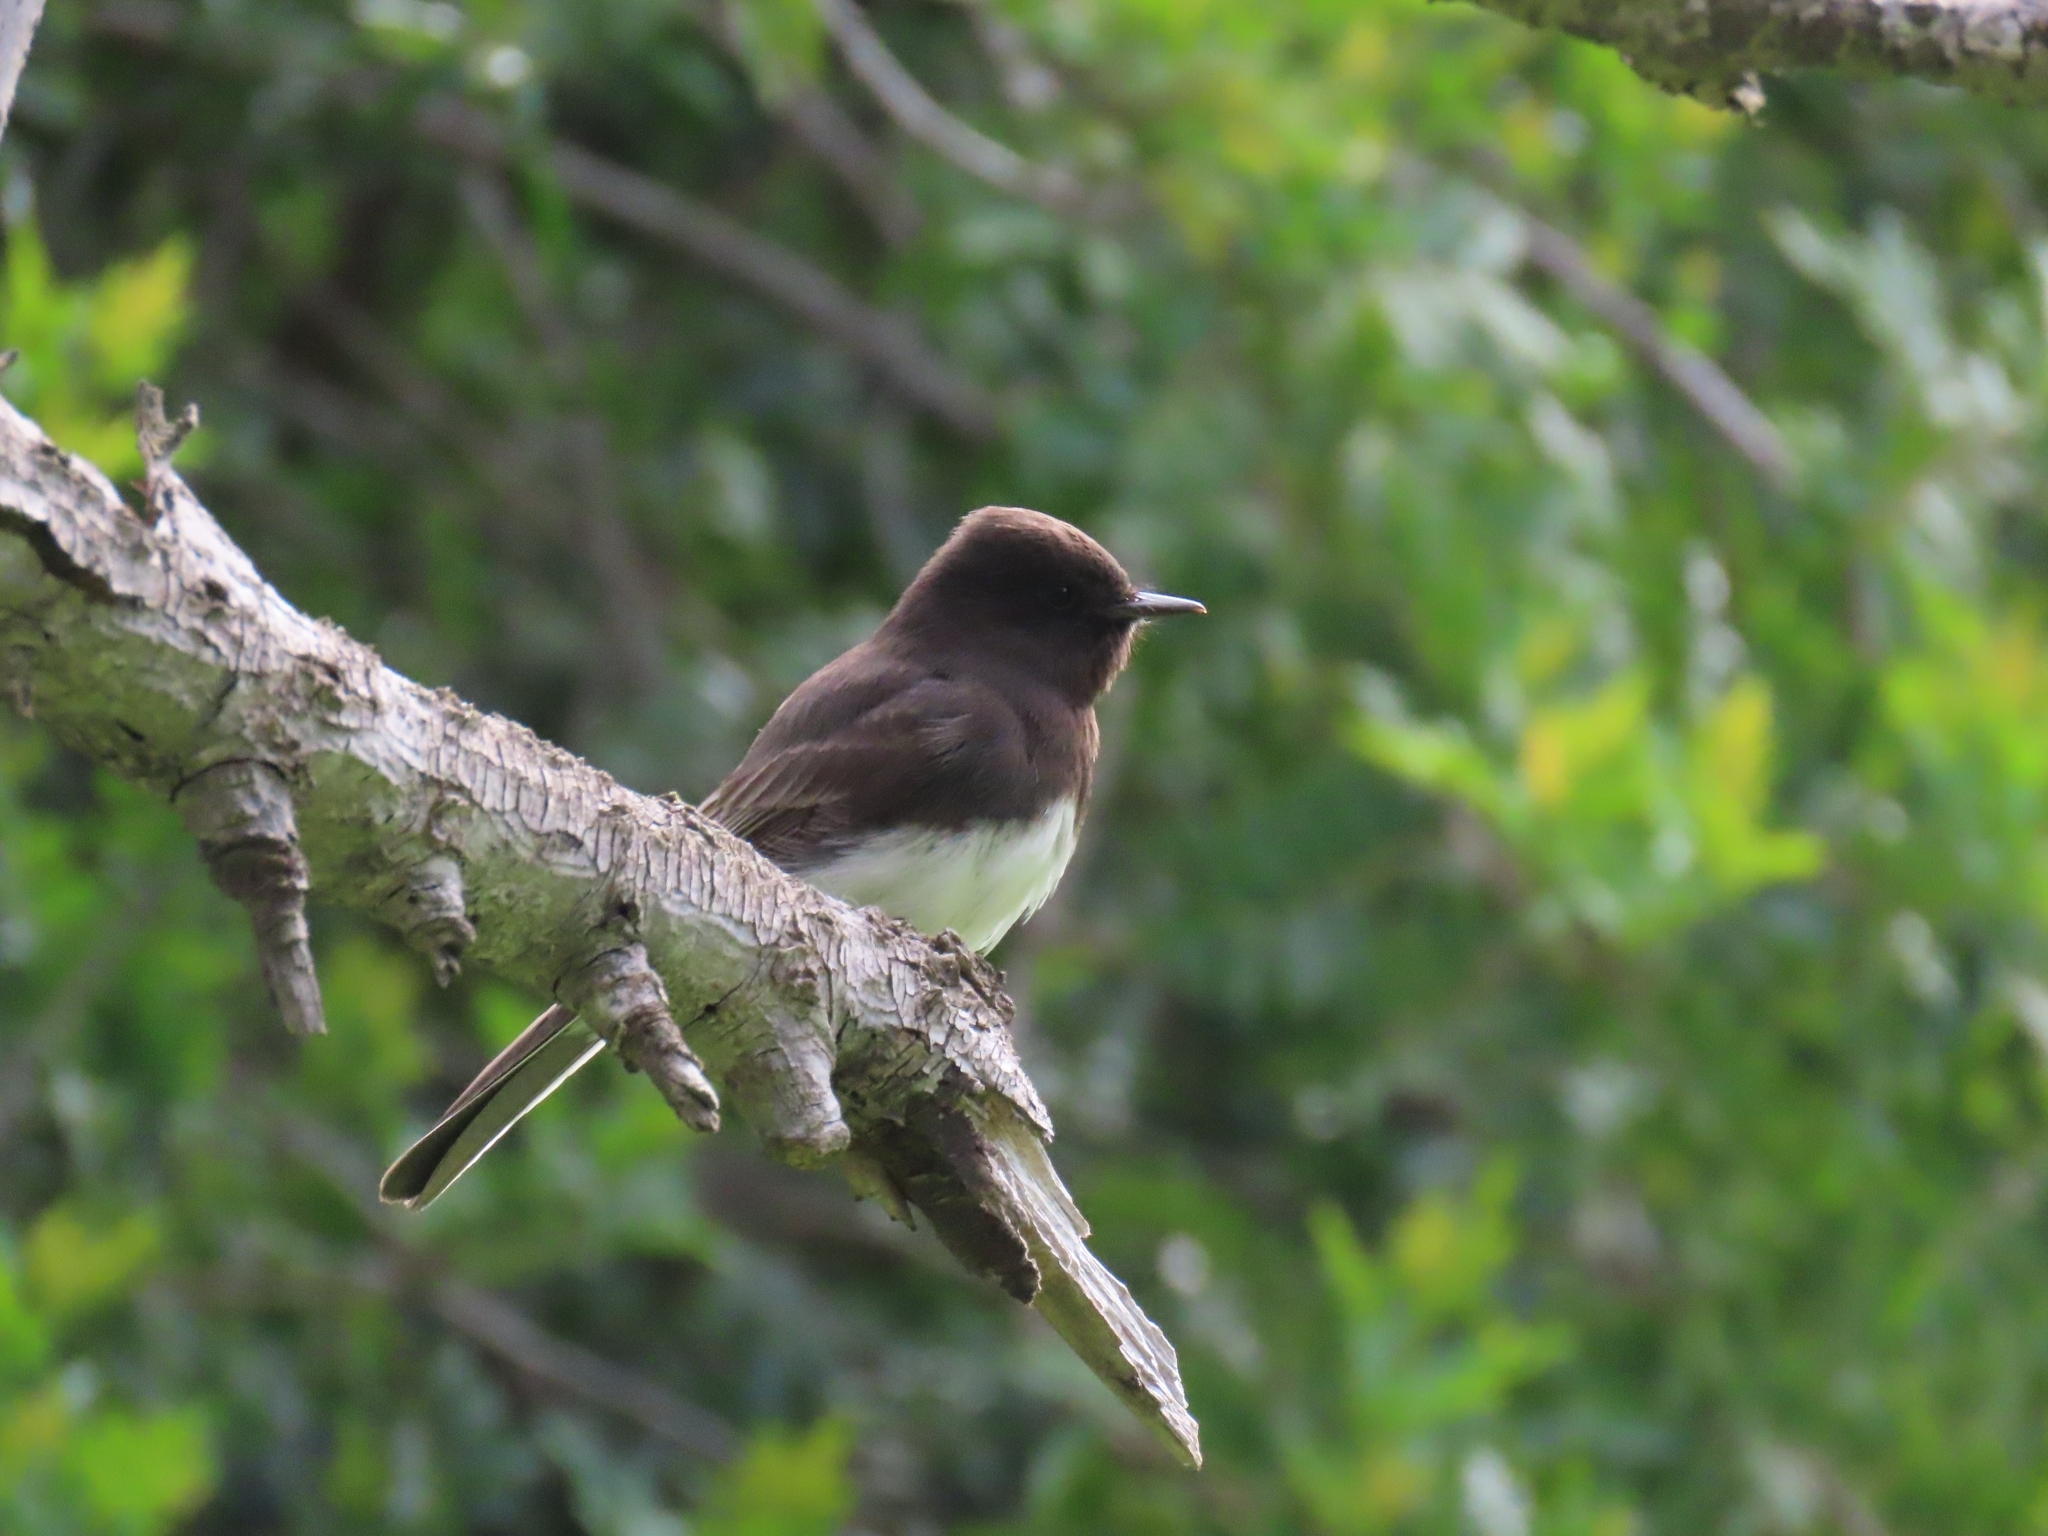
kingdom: Animalia
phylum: Chordata
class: Aves
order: Passeriformes
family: Tyrannidae
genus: Sayornis
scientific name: Sayornis nigricans
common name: Black phoebe
